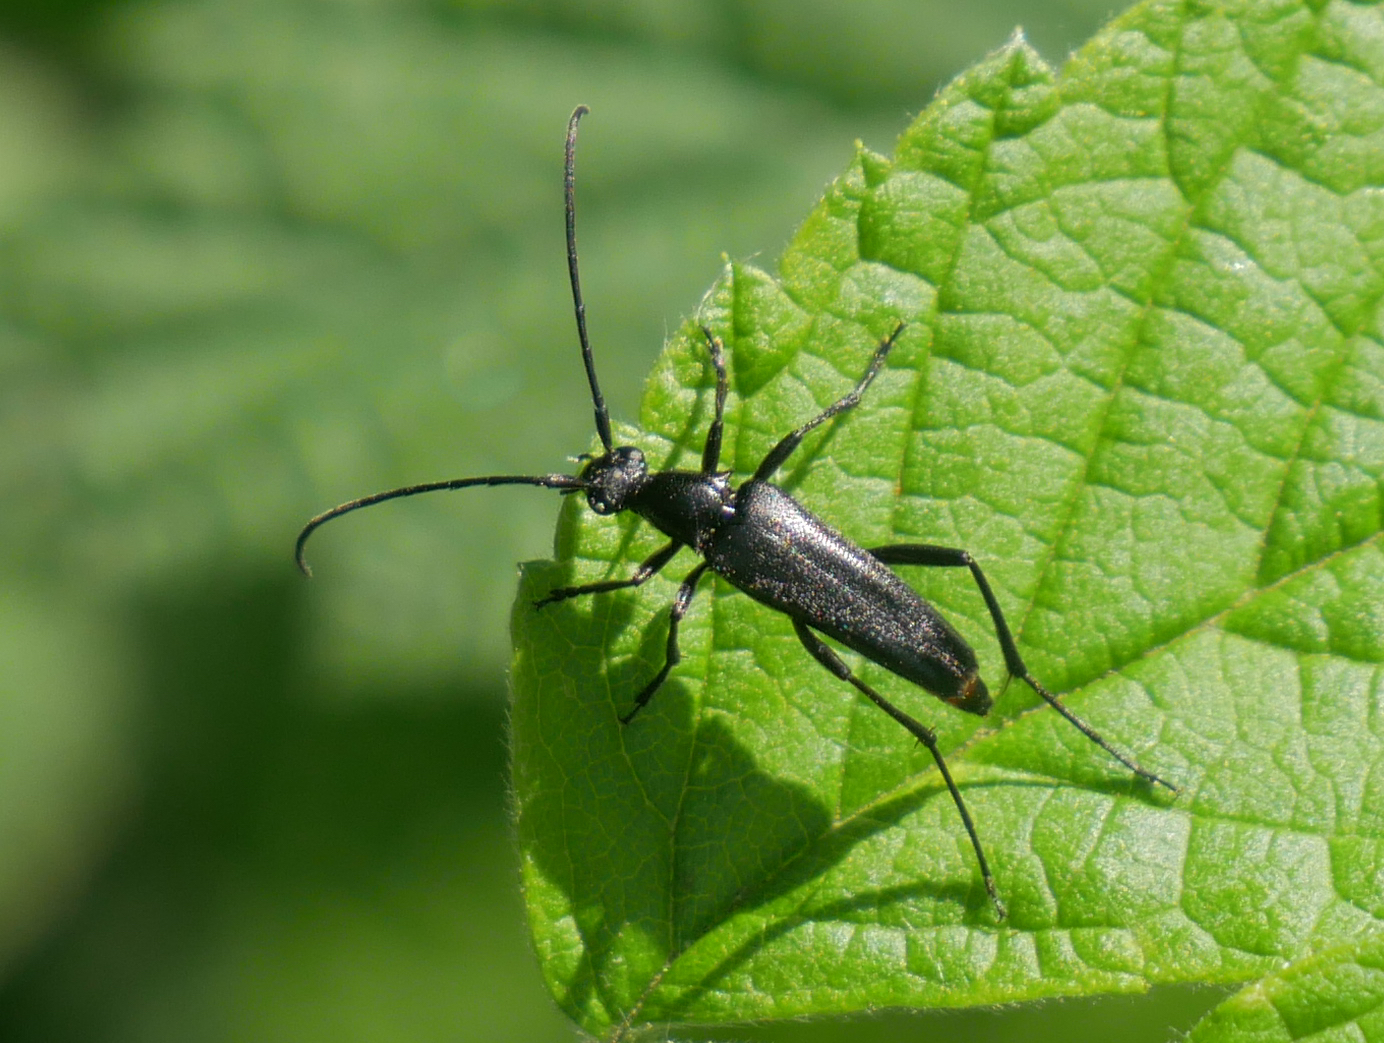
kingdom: Animalia
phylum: Arthropoda
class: Insecta
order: Coleoptera
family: Cerambycidae
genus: Stenurella
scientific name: Stenurella nigra
